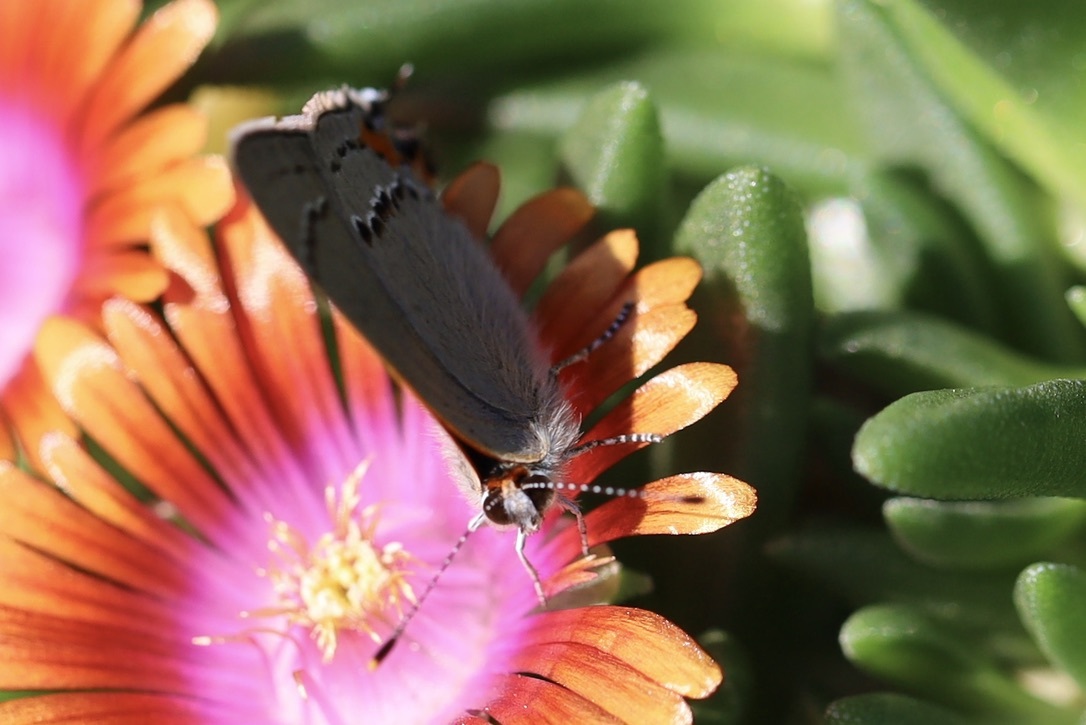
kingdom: Animalia
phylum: Arthropoda
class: Insecta
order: Lepidoptera
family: Lycaenidae
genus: Strymon
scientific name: Strymon melinus
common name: Gray hairstreak
